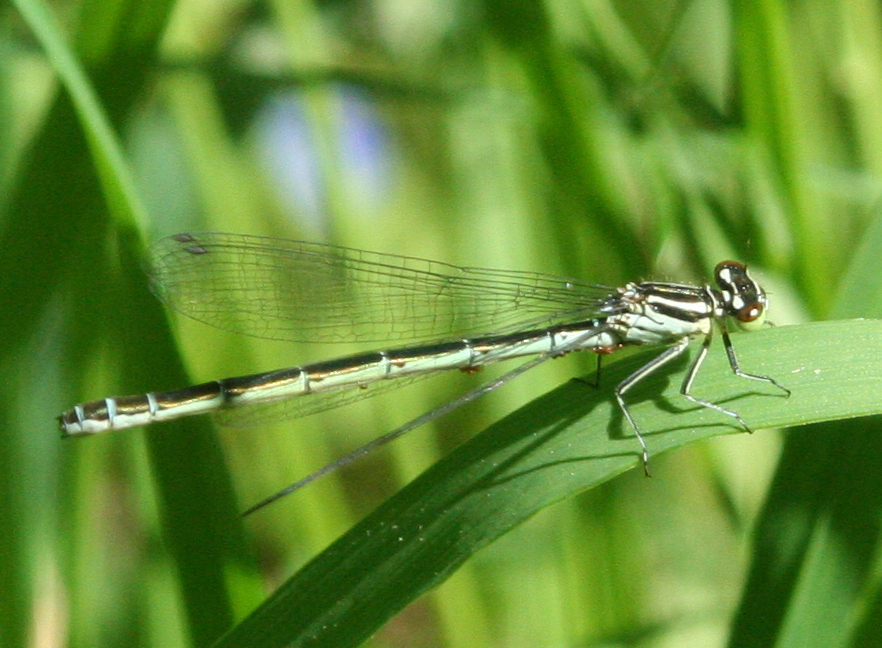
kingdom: Animalia
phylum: Arthropoda
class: Insecta
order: Odonata
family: Coenagrionidae
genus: Coenagrion
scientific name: Coenagrion hastulatum
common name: Spearhead bluet
